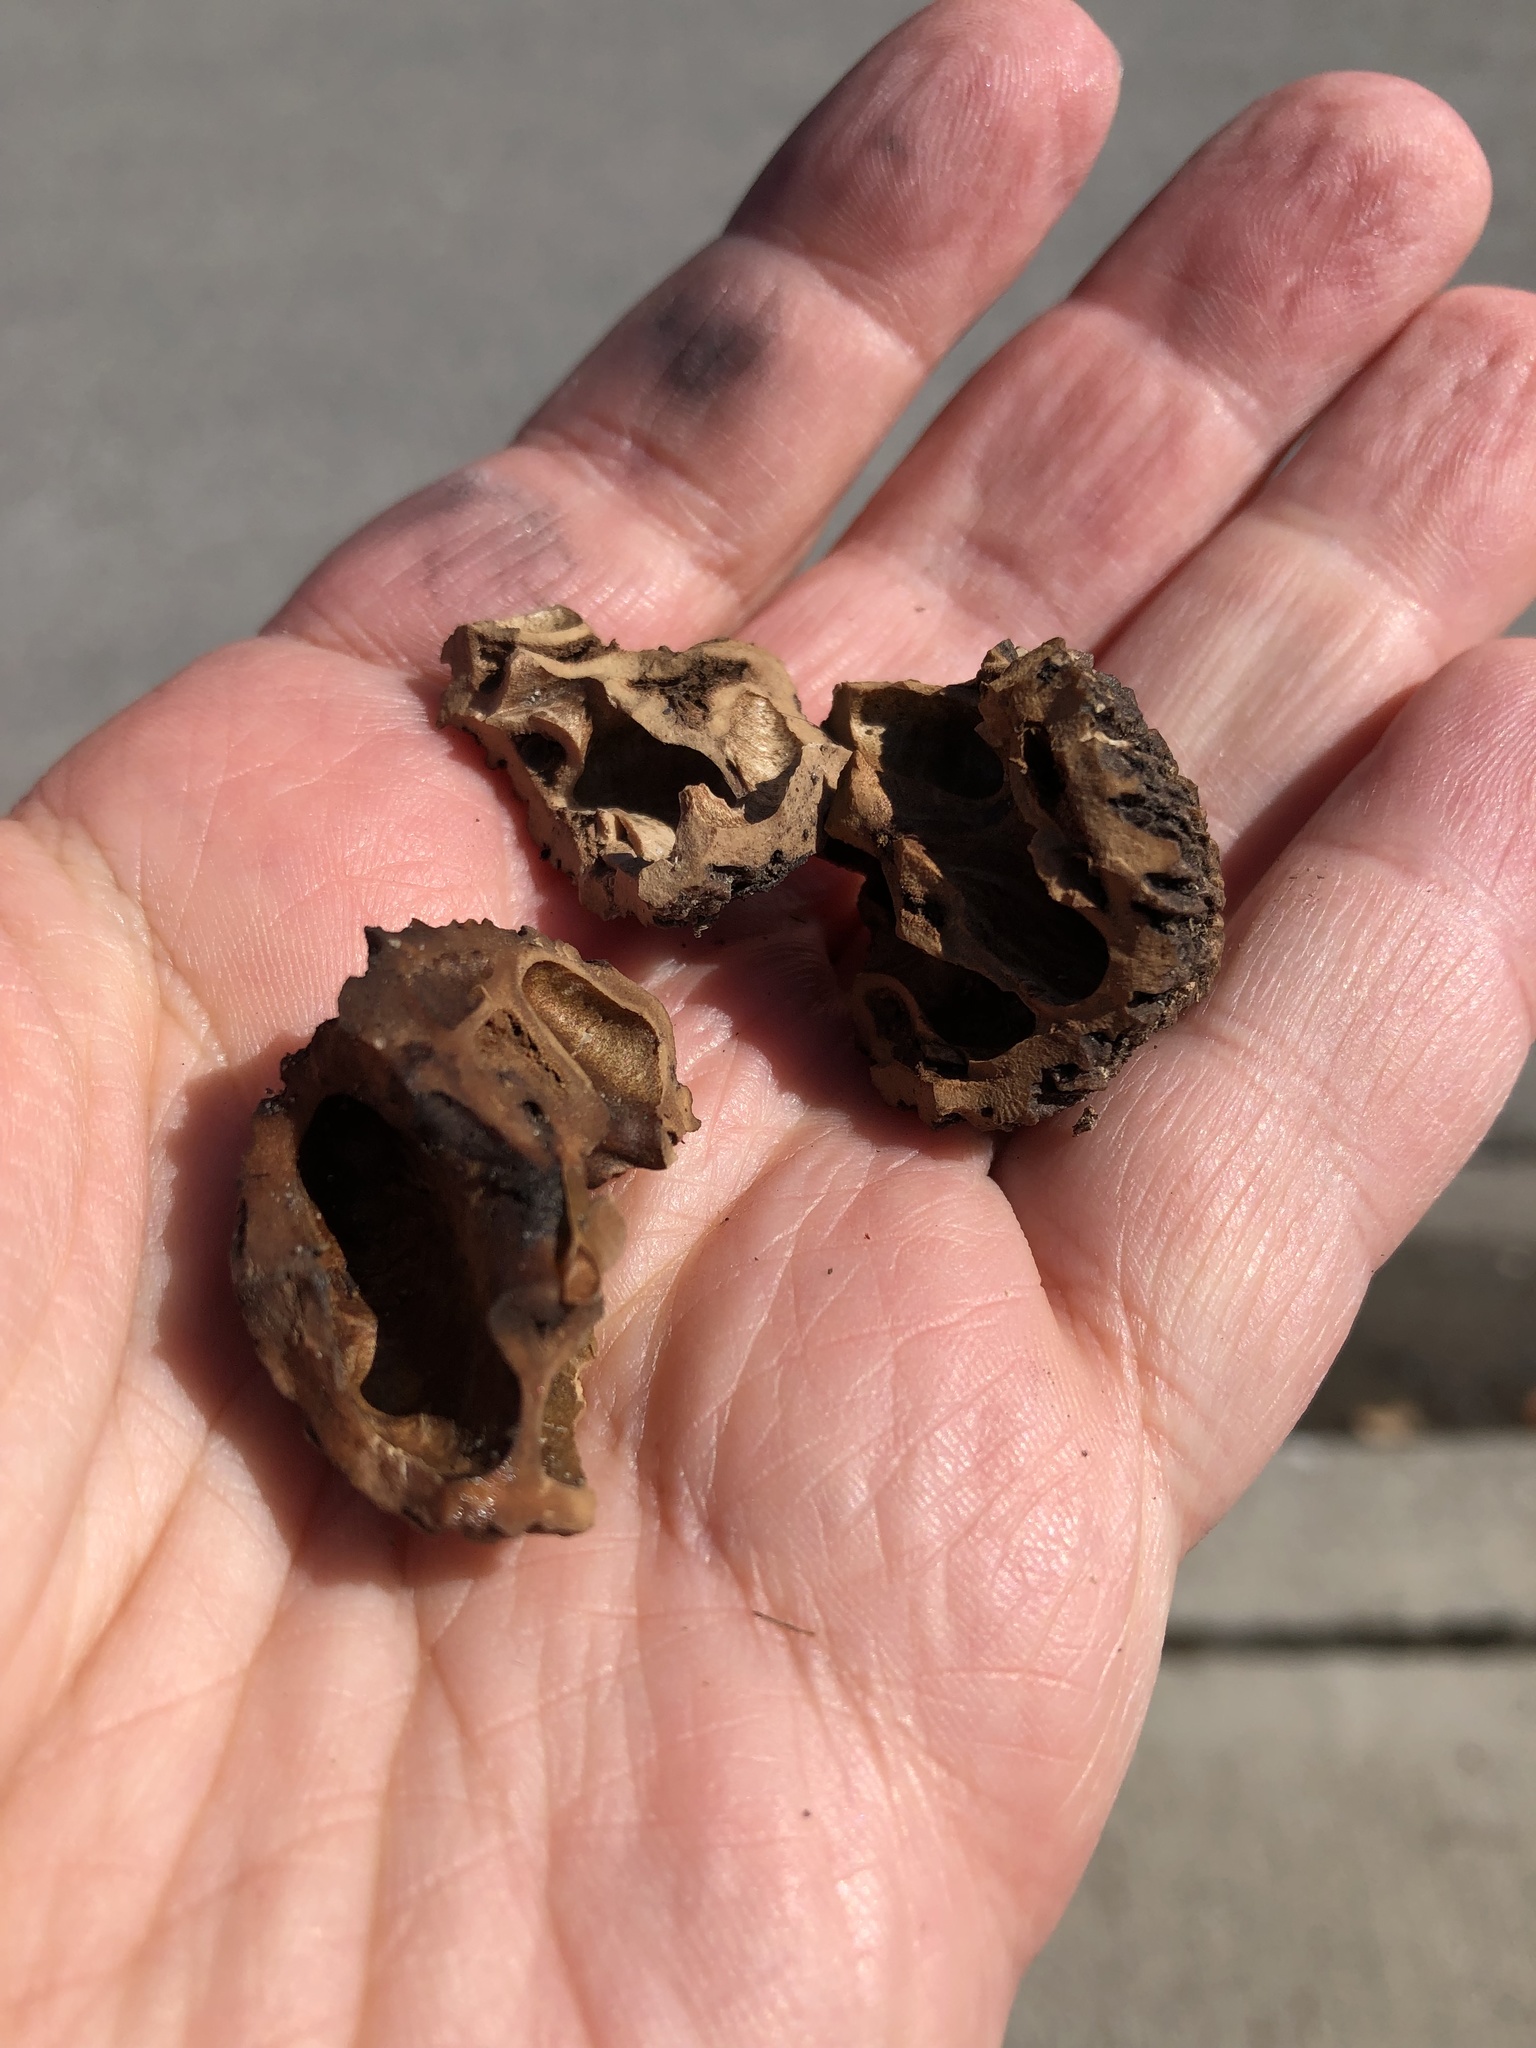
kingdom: Plantae
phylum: Tracheophyta
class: Magnoliopsida
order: Fagales
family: Juglandaceae
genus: Juglans
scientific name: Juglans nigra
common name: Black walnut
